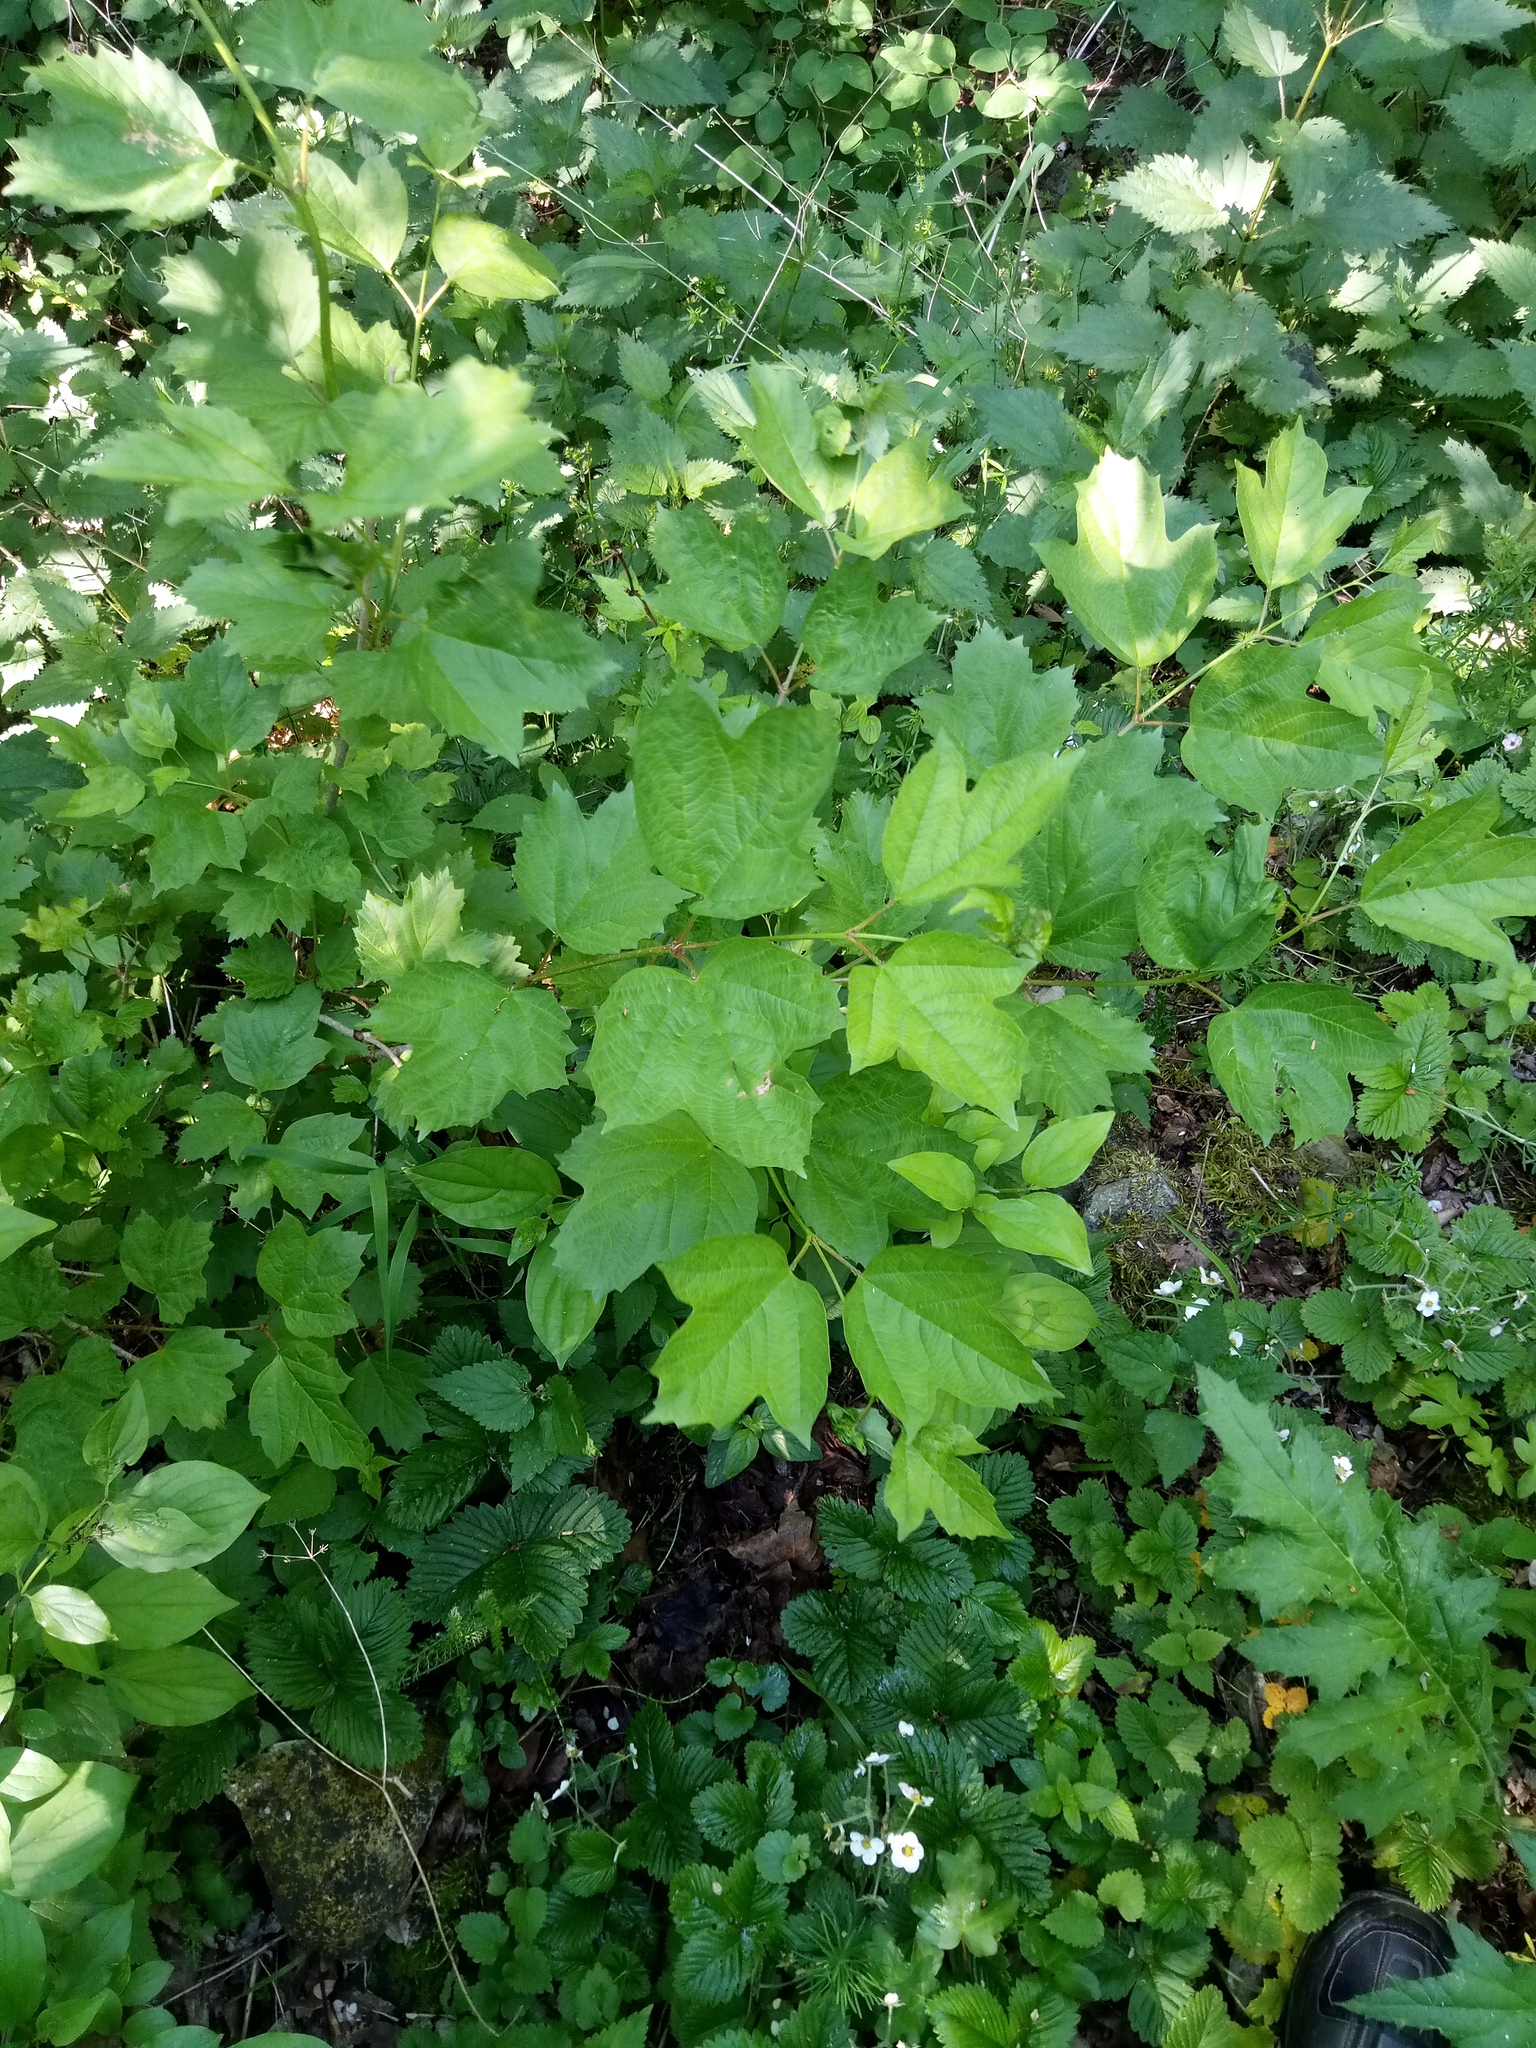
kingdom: Plantae
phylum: Tracheophyta
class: Magnoliopsida
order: Dipsacales
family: Viburnaceae
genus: Viburnum
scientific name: Viburnum opulus
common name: Guelder-rose
